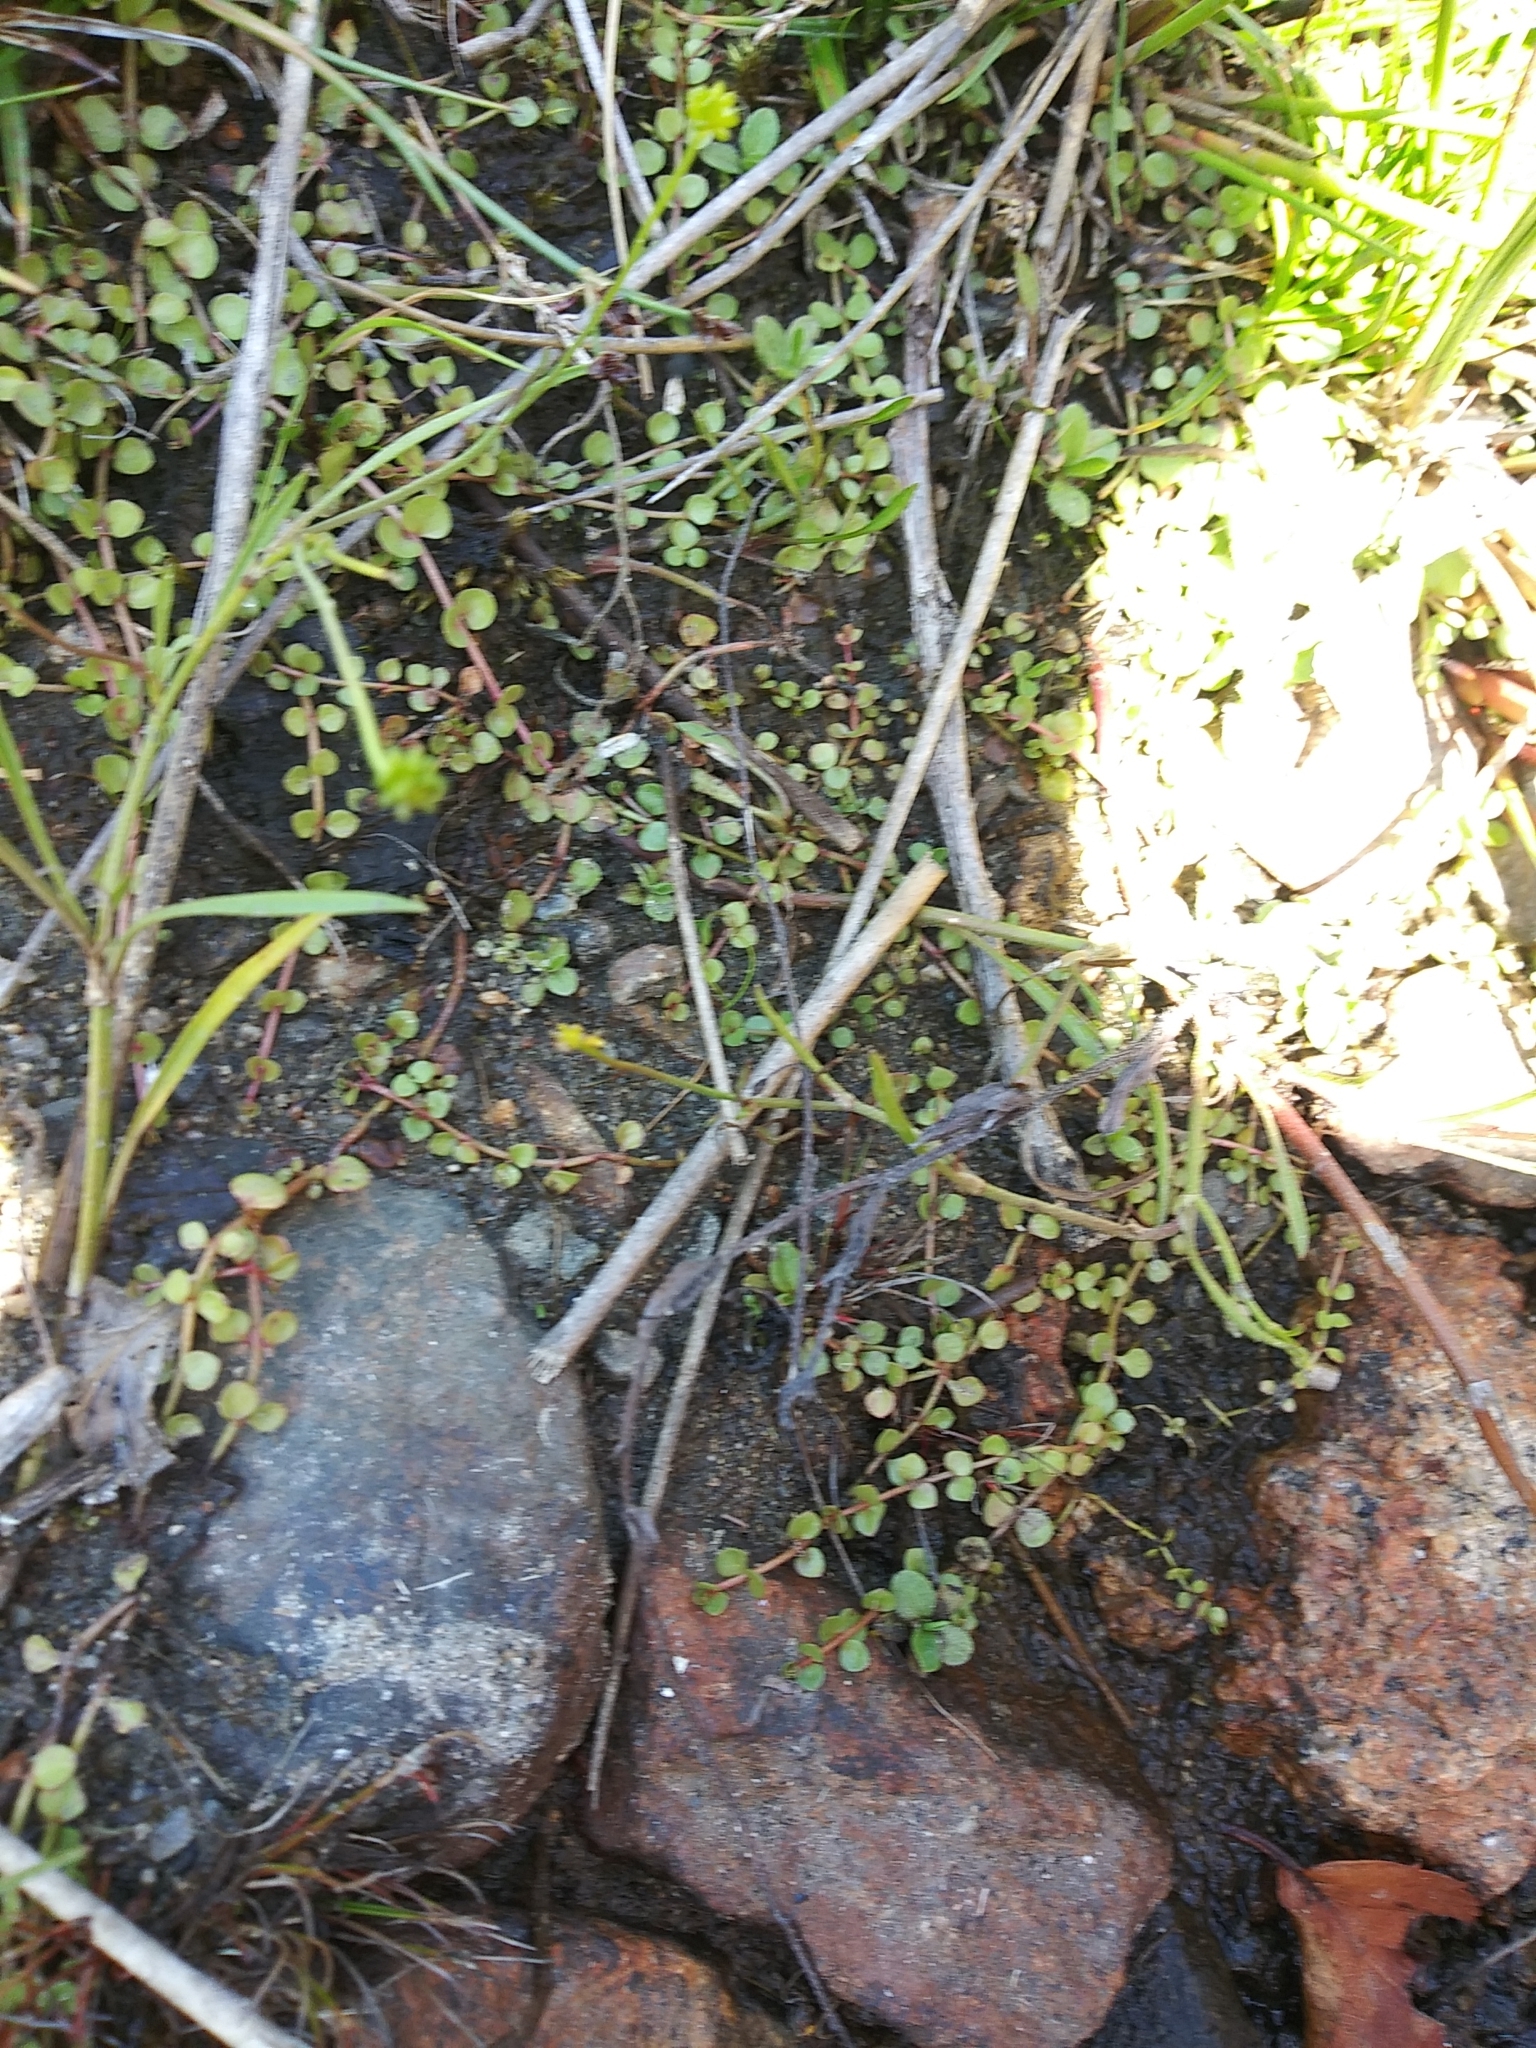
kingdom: Plantae
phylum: Tracheophyta
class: Magnoliopsida
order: Ericales
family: Primulaceae
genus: Lysimachia
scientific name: Lysimachia tenella
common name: European bog pimpernel
